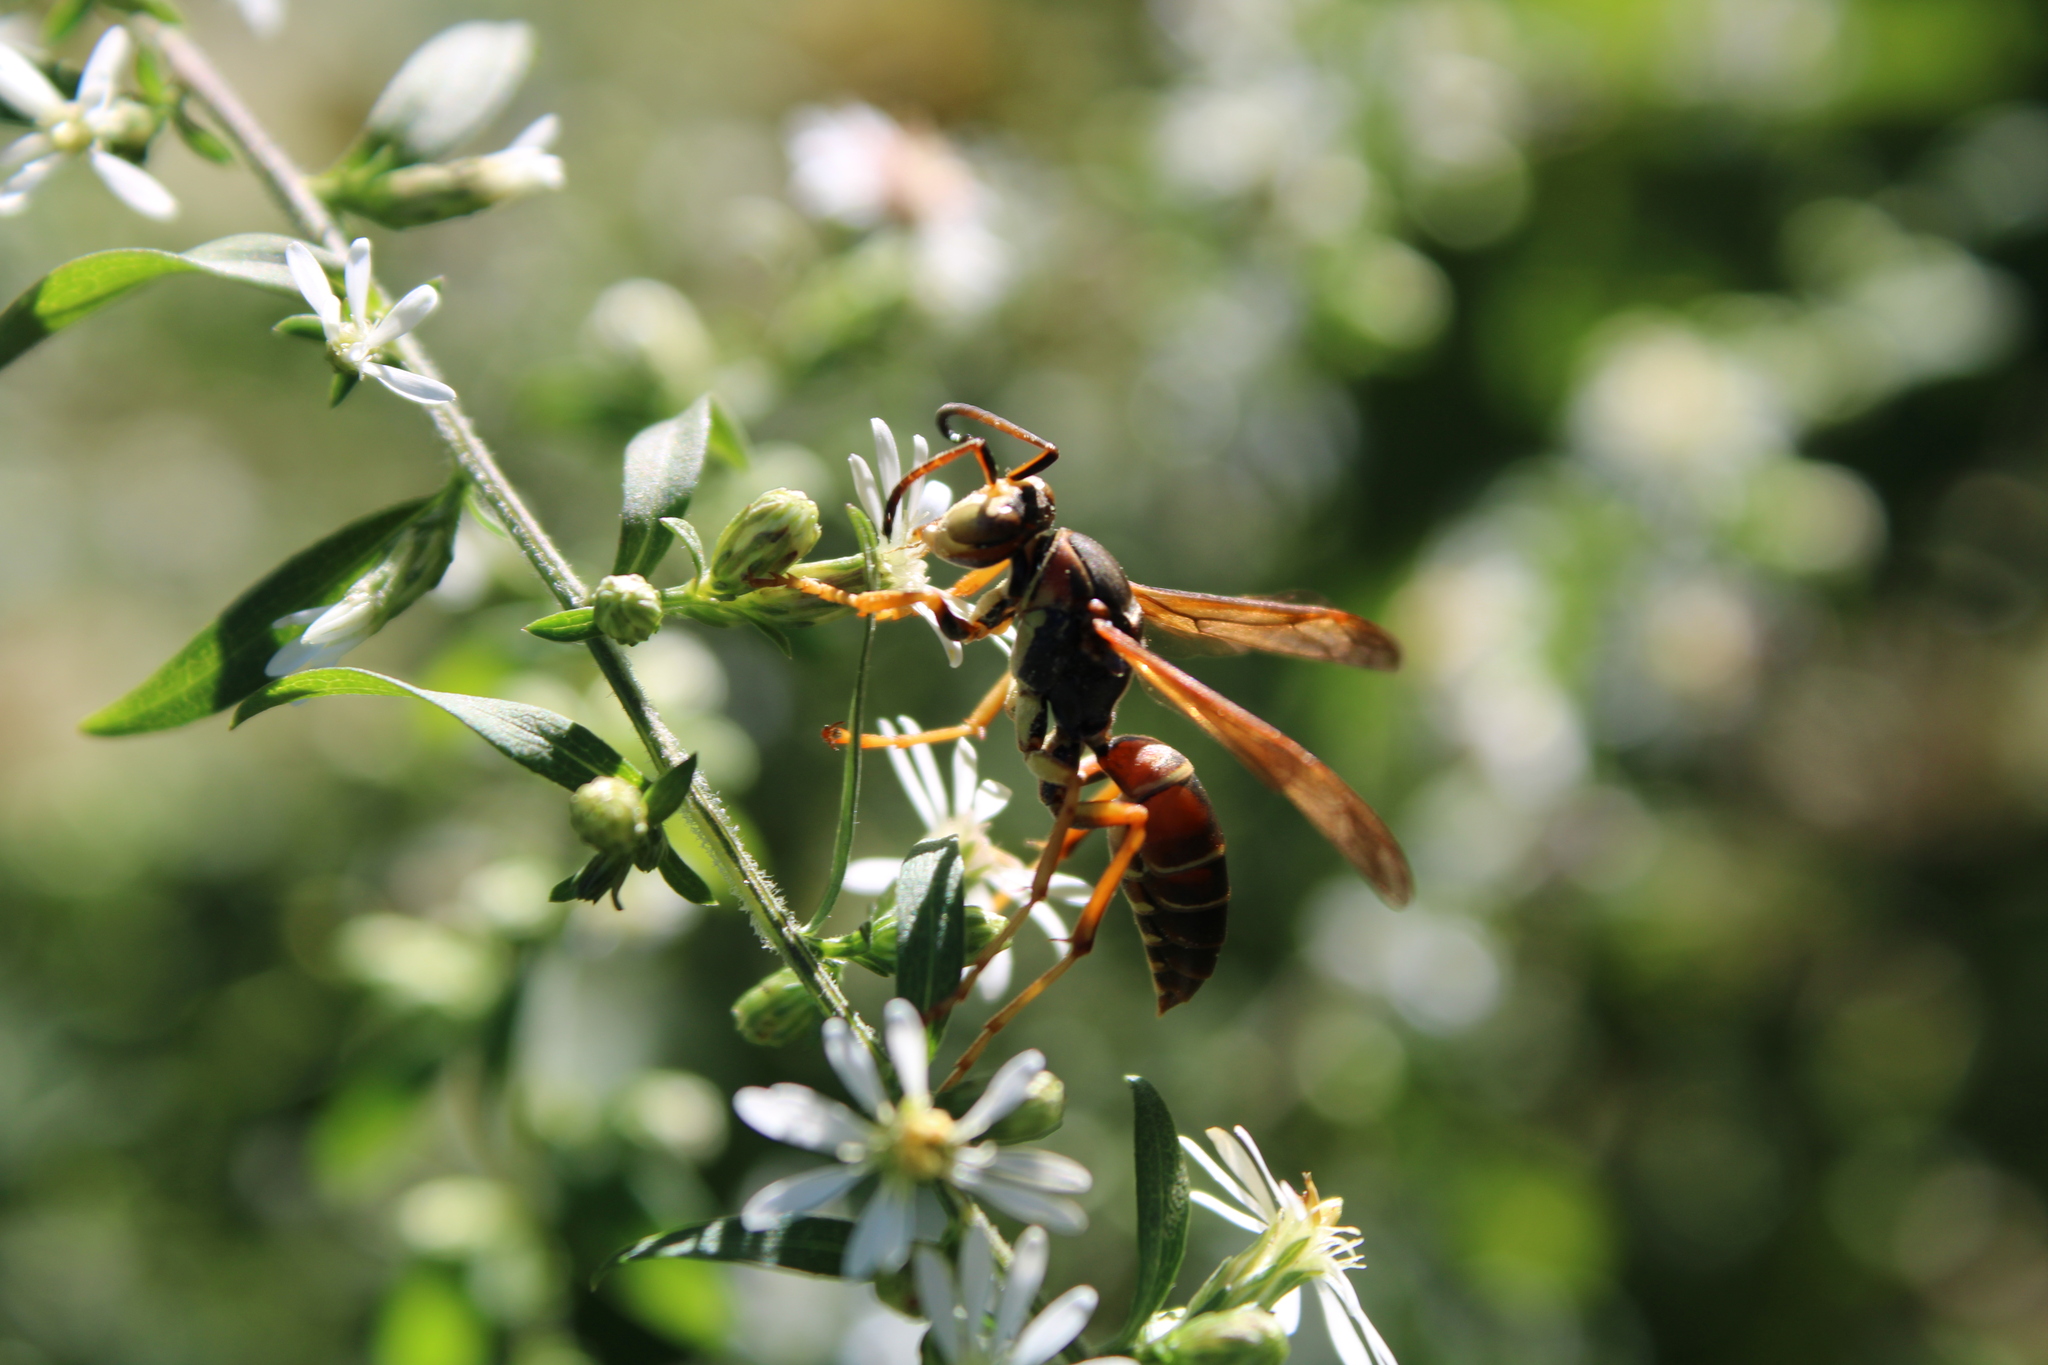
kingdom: Animalia
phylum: Arthropoda
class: Insecta
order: Hymenoptera
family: Eumenidae
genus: Polistes
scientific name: Polistes fuscatus
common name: Dark paper wasp
